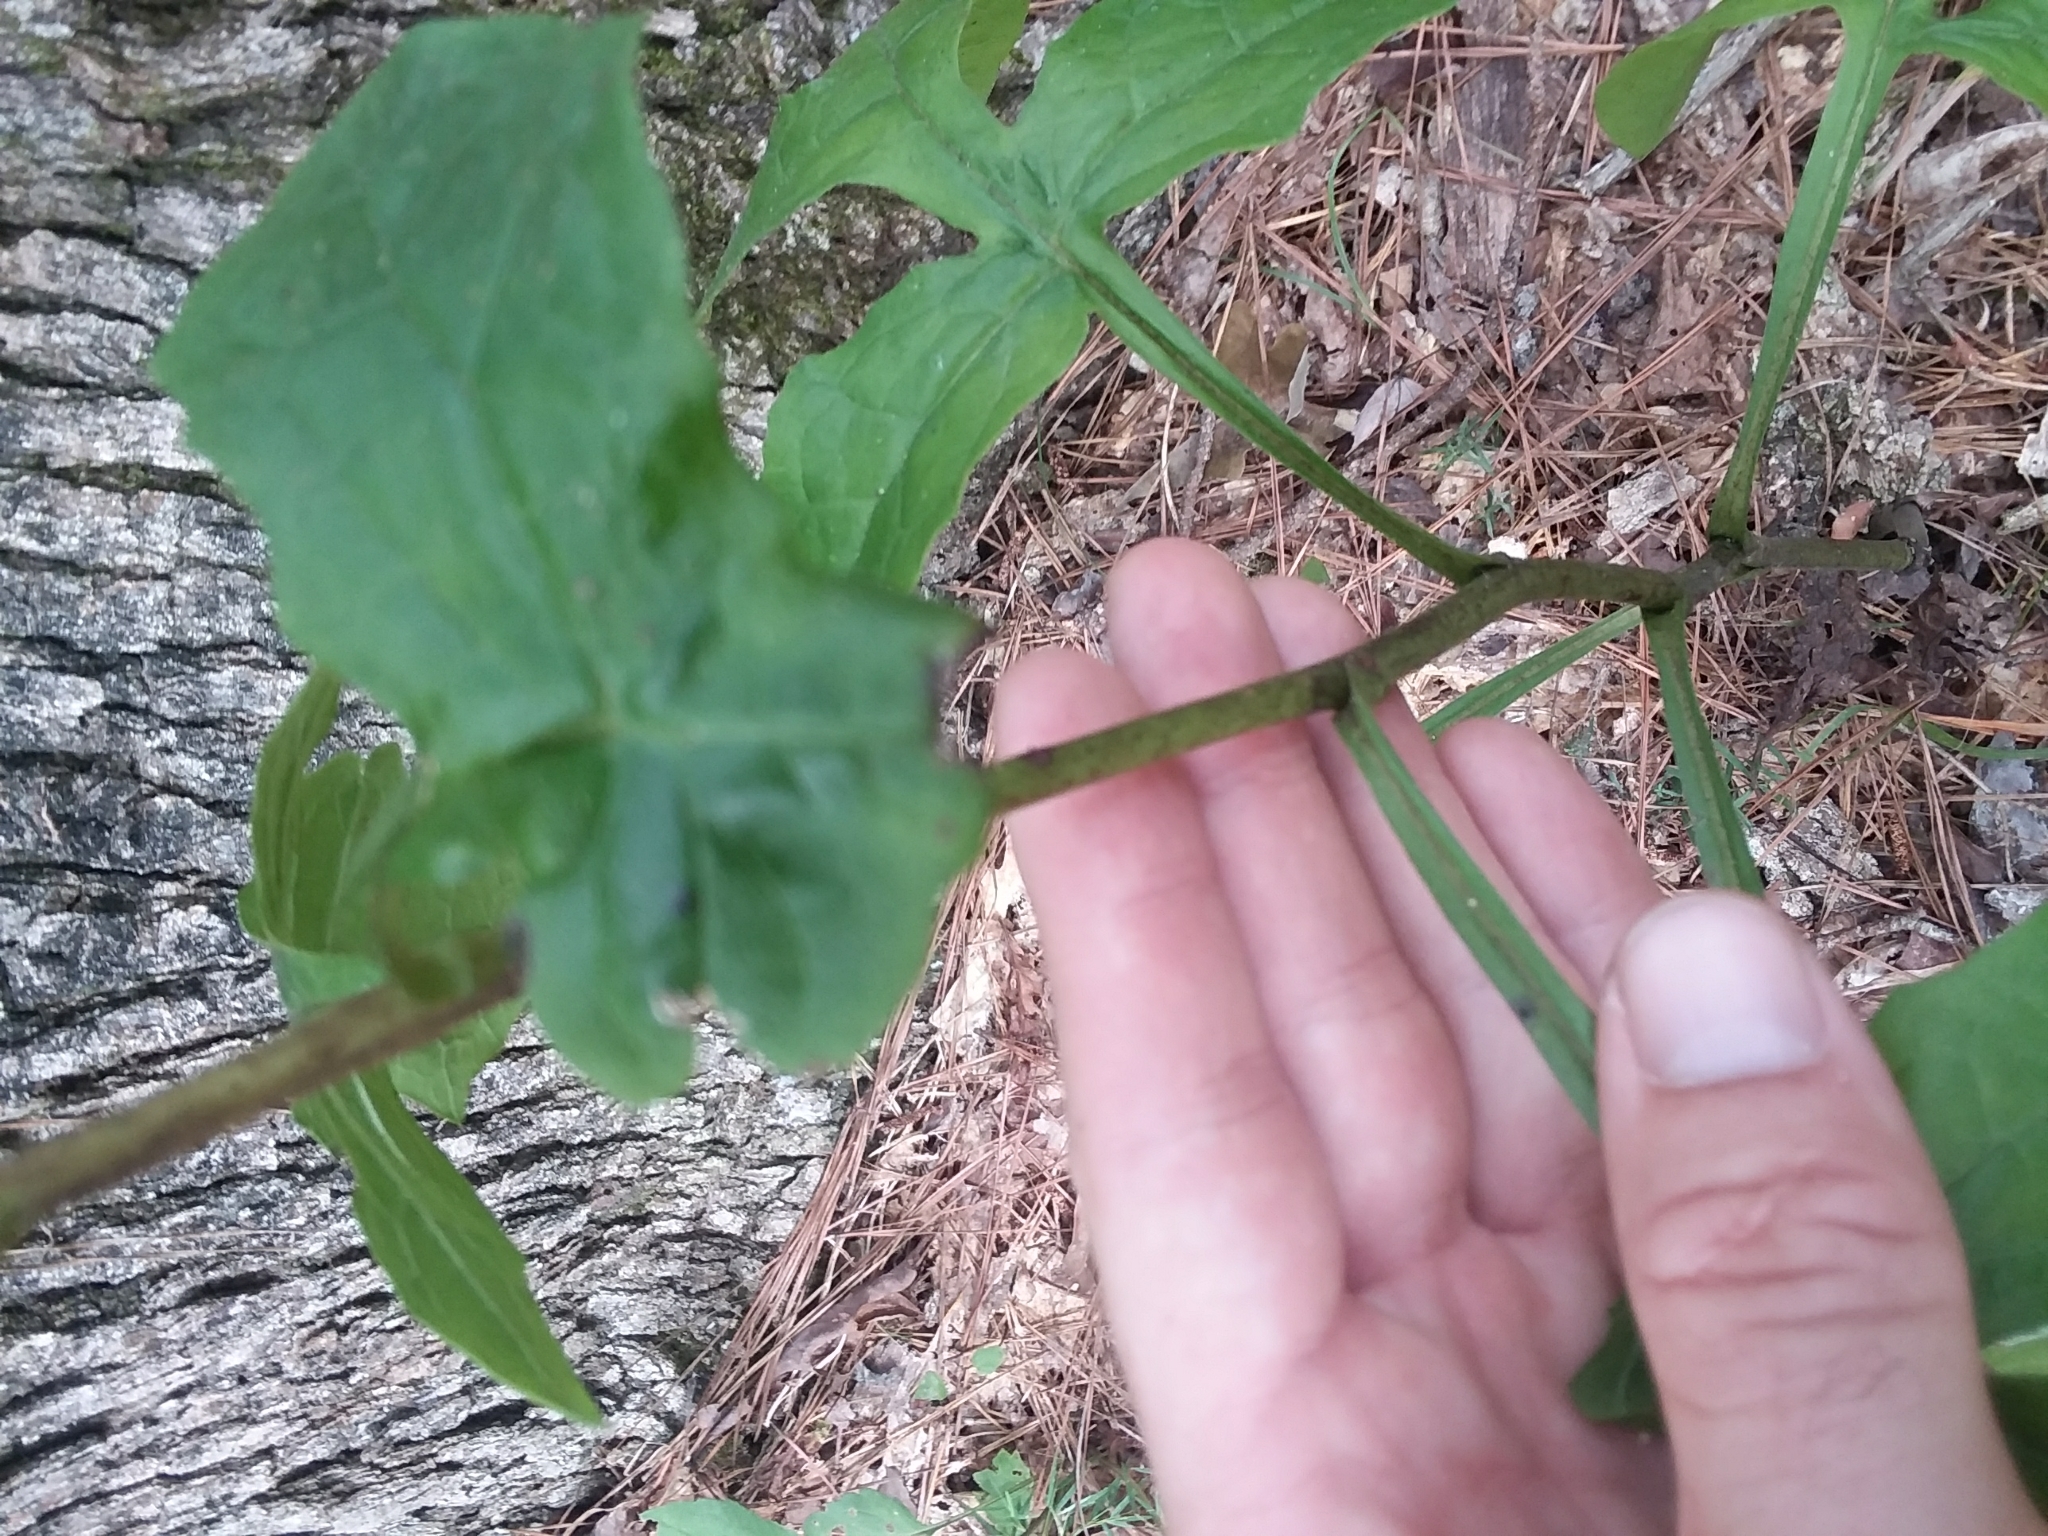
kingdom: Plantae
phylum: Tracheophyta
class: Magnoliopsida
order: Asterales
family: Asteraceae
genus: Nabalus
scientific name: Nabalus serpentarius
